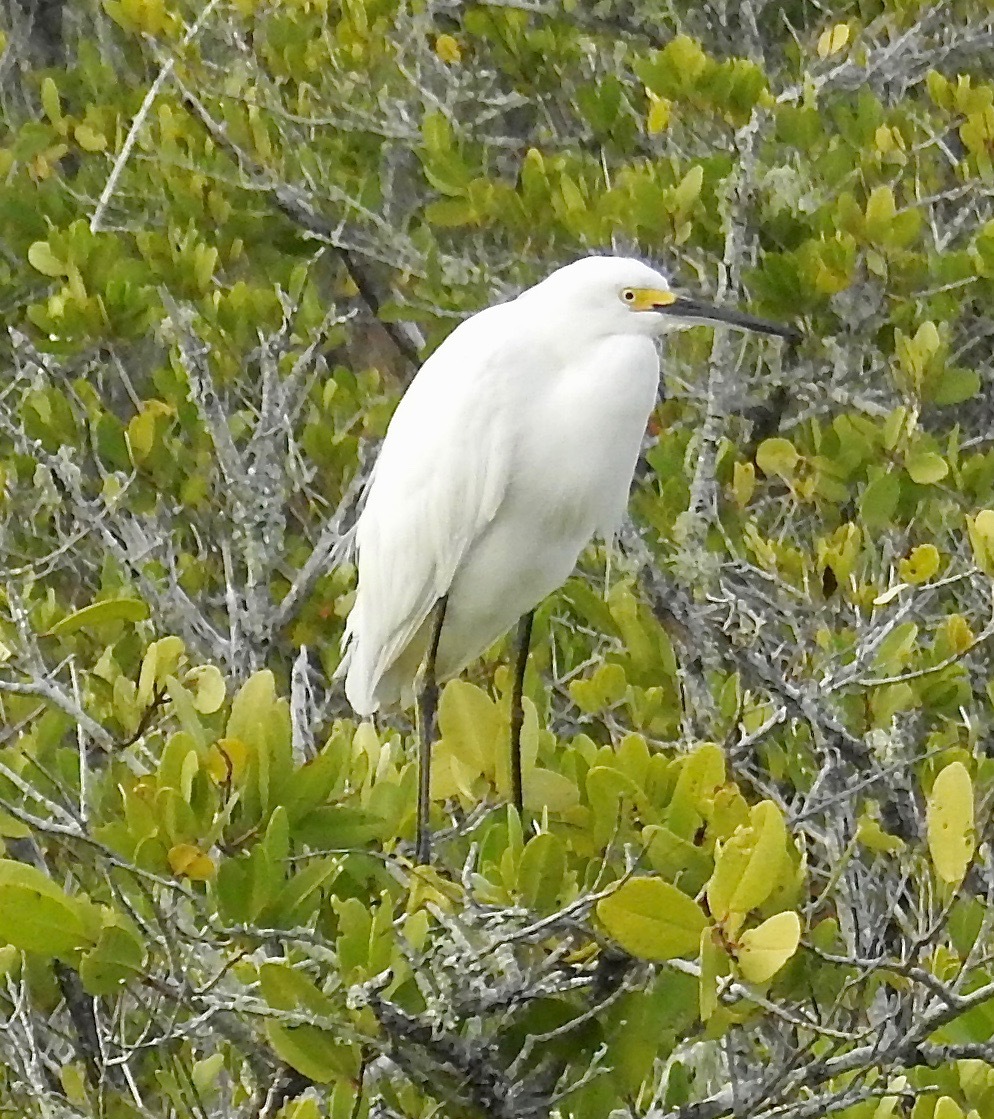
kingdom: Animalia
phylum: Chordata
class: Aves
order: Pelecaniformes
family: Ardeidae
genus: Egretta
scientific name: Egretta thula
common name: Snowy egret
